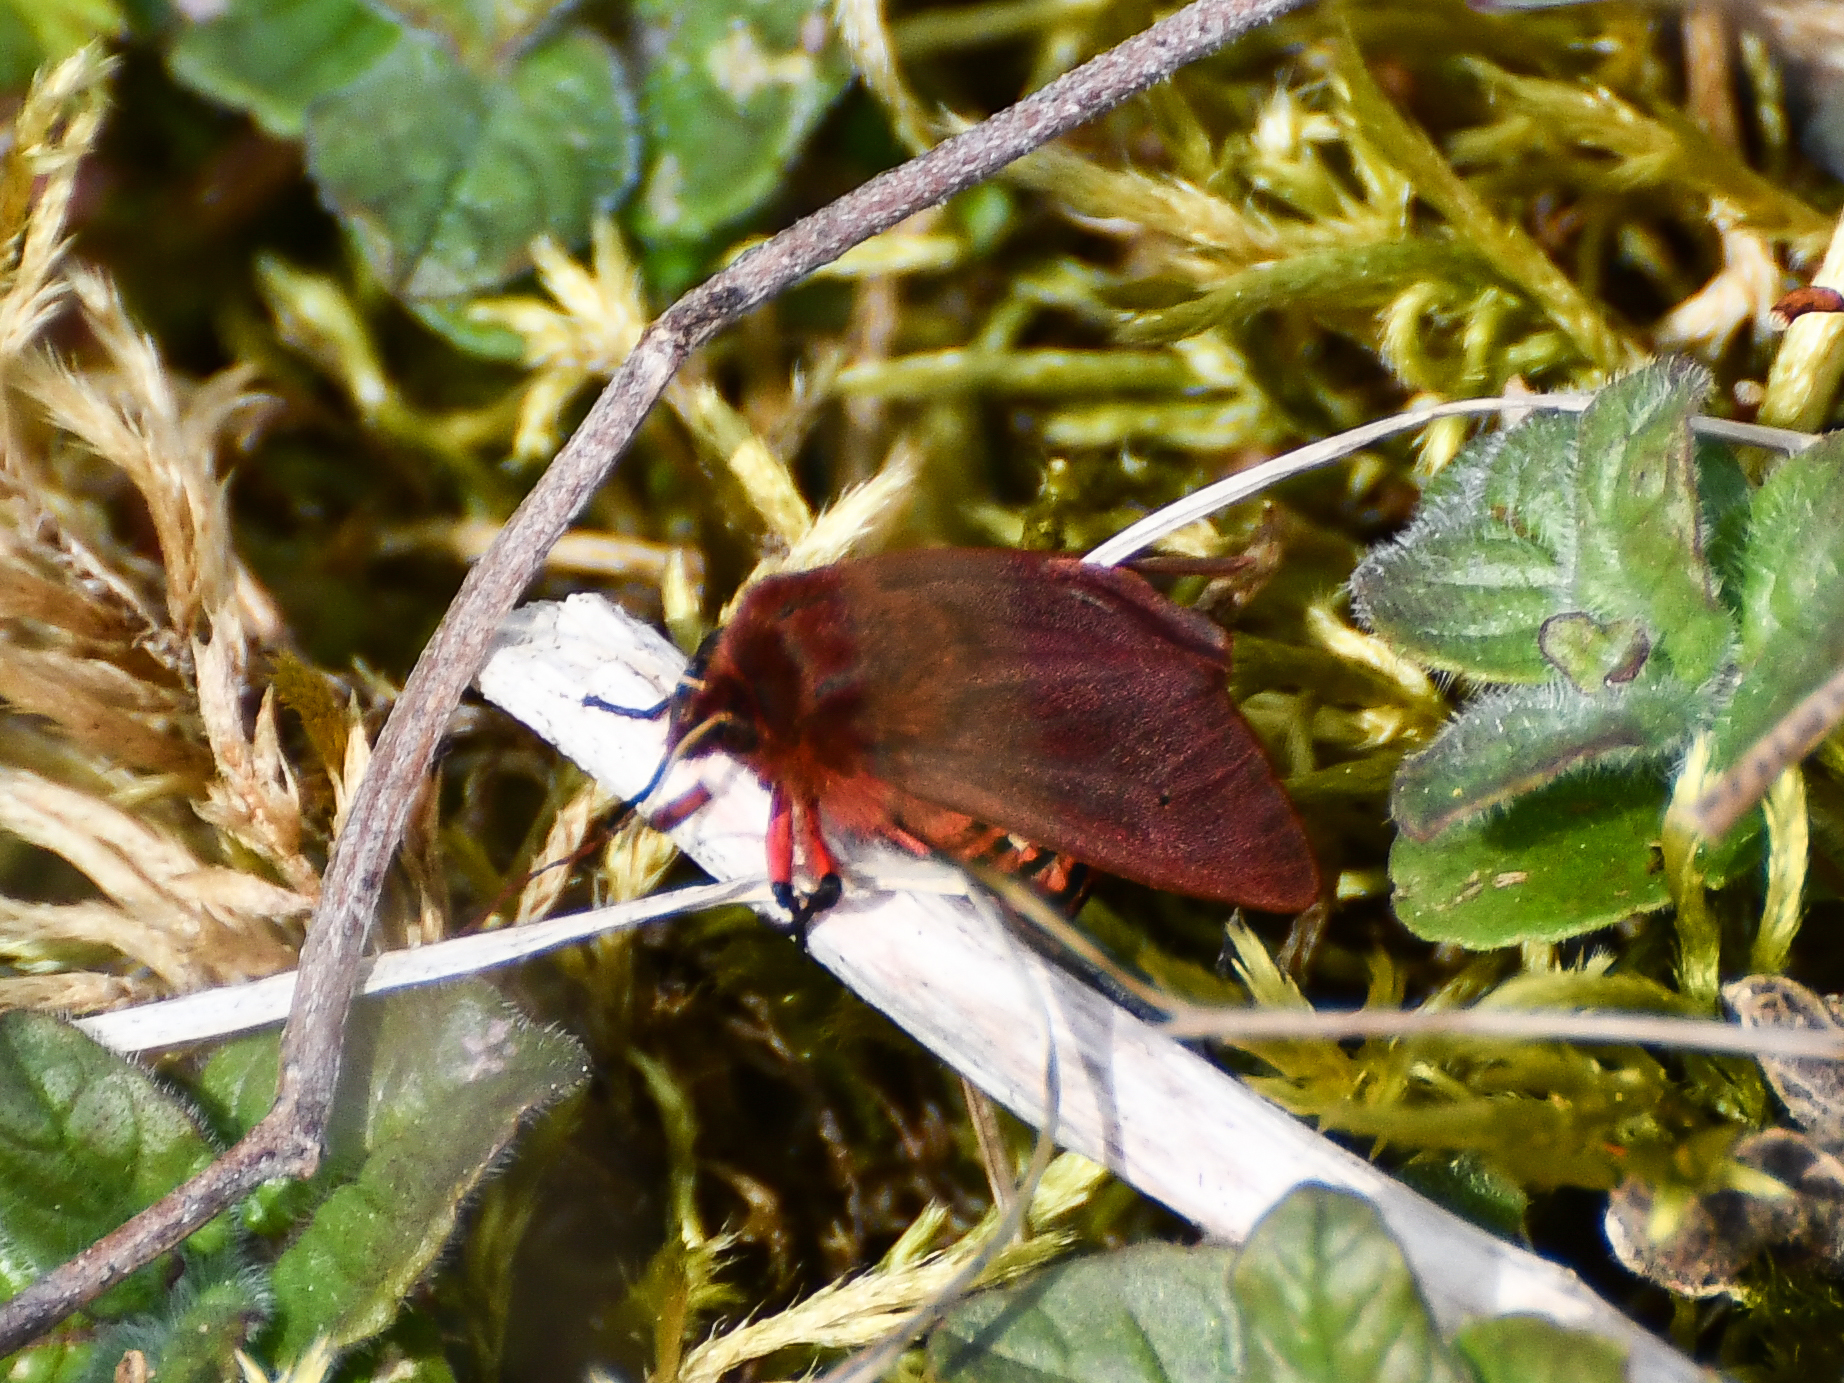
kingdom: Animalia
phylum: Arthropoda
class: Insecta
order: Lepidoptera
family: Erebidae
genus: Phragmatobia
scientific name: Phragmatobia fuliginosa
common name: Ruby tiger
